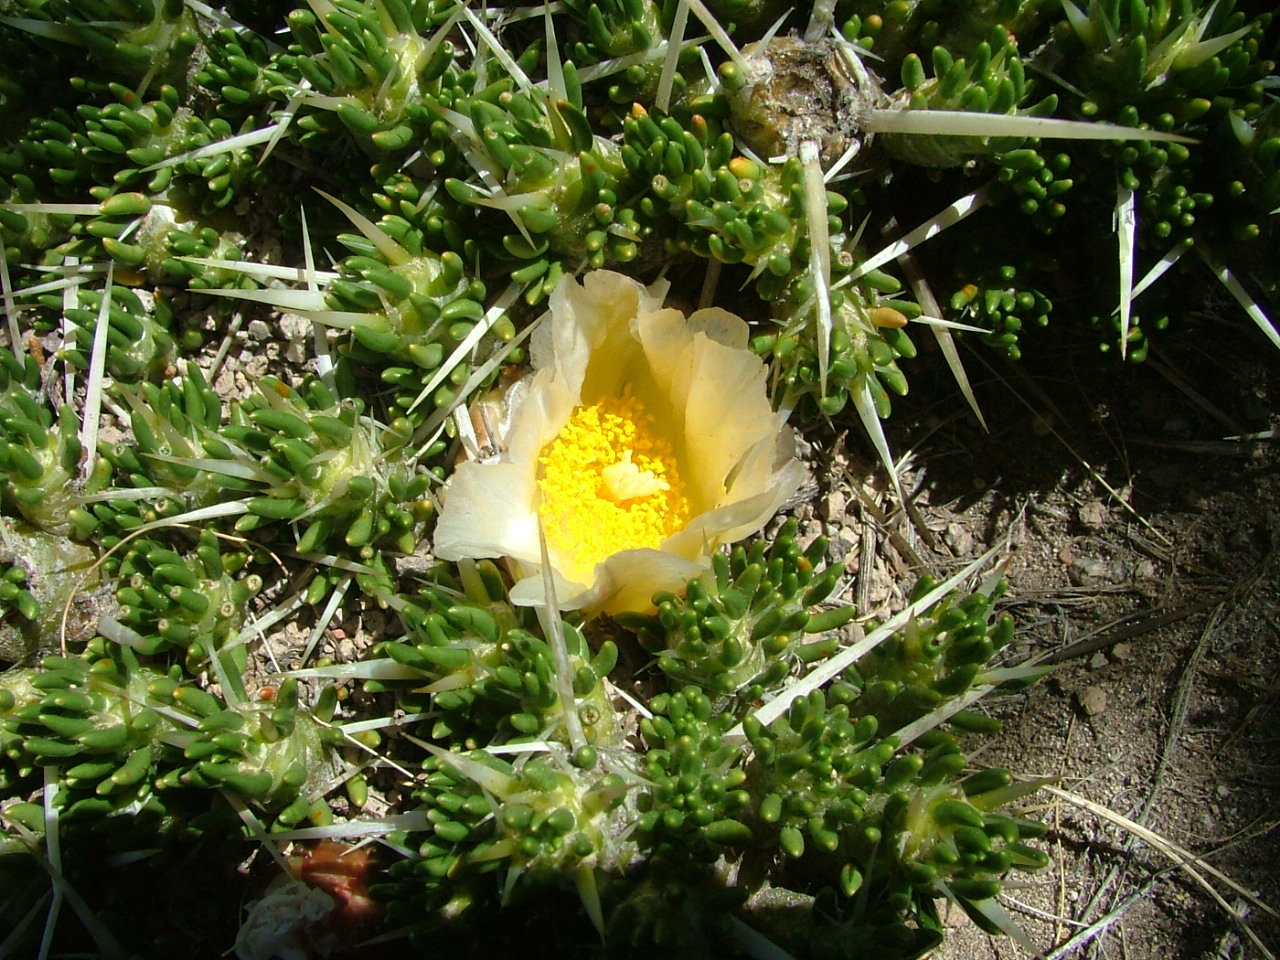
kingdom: Plantae
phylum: Tracheophyta
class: Magnoliopsida
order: Caryophyllales
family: Cactaceae
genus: Maihuenia
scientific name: Maihuenia patagonica
